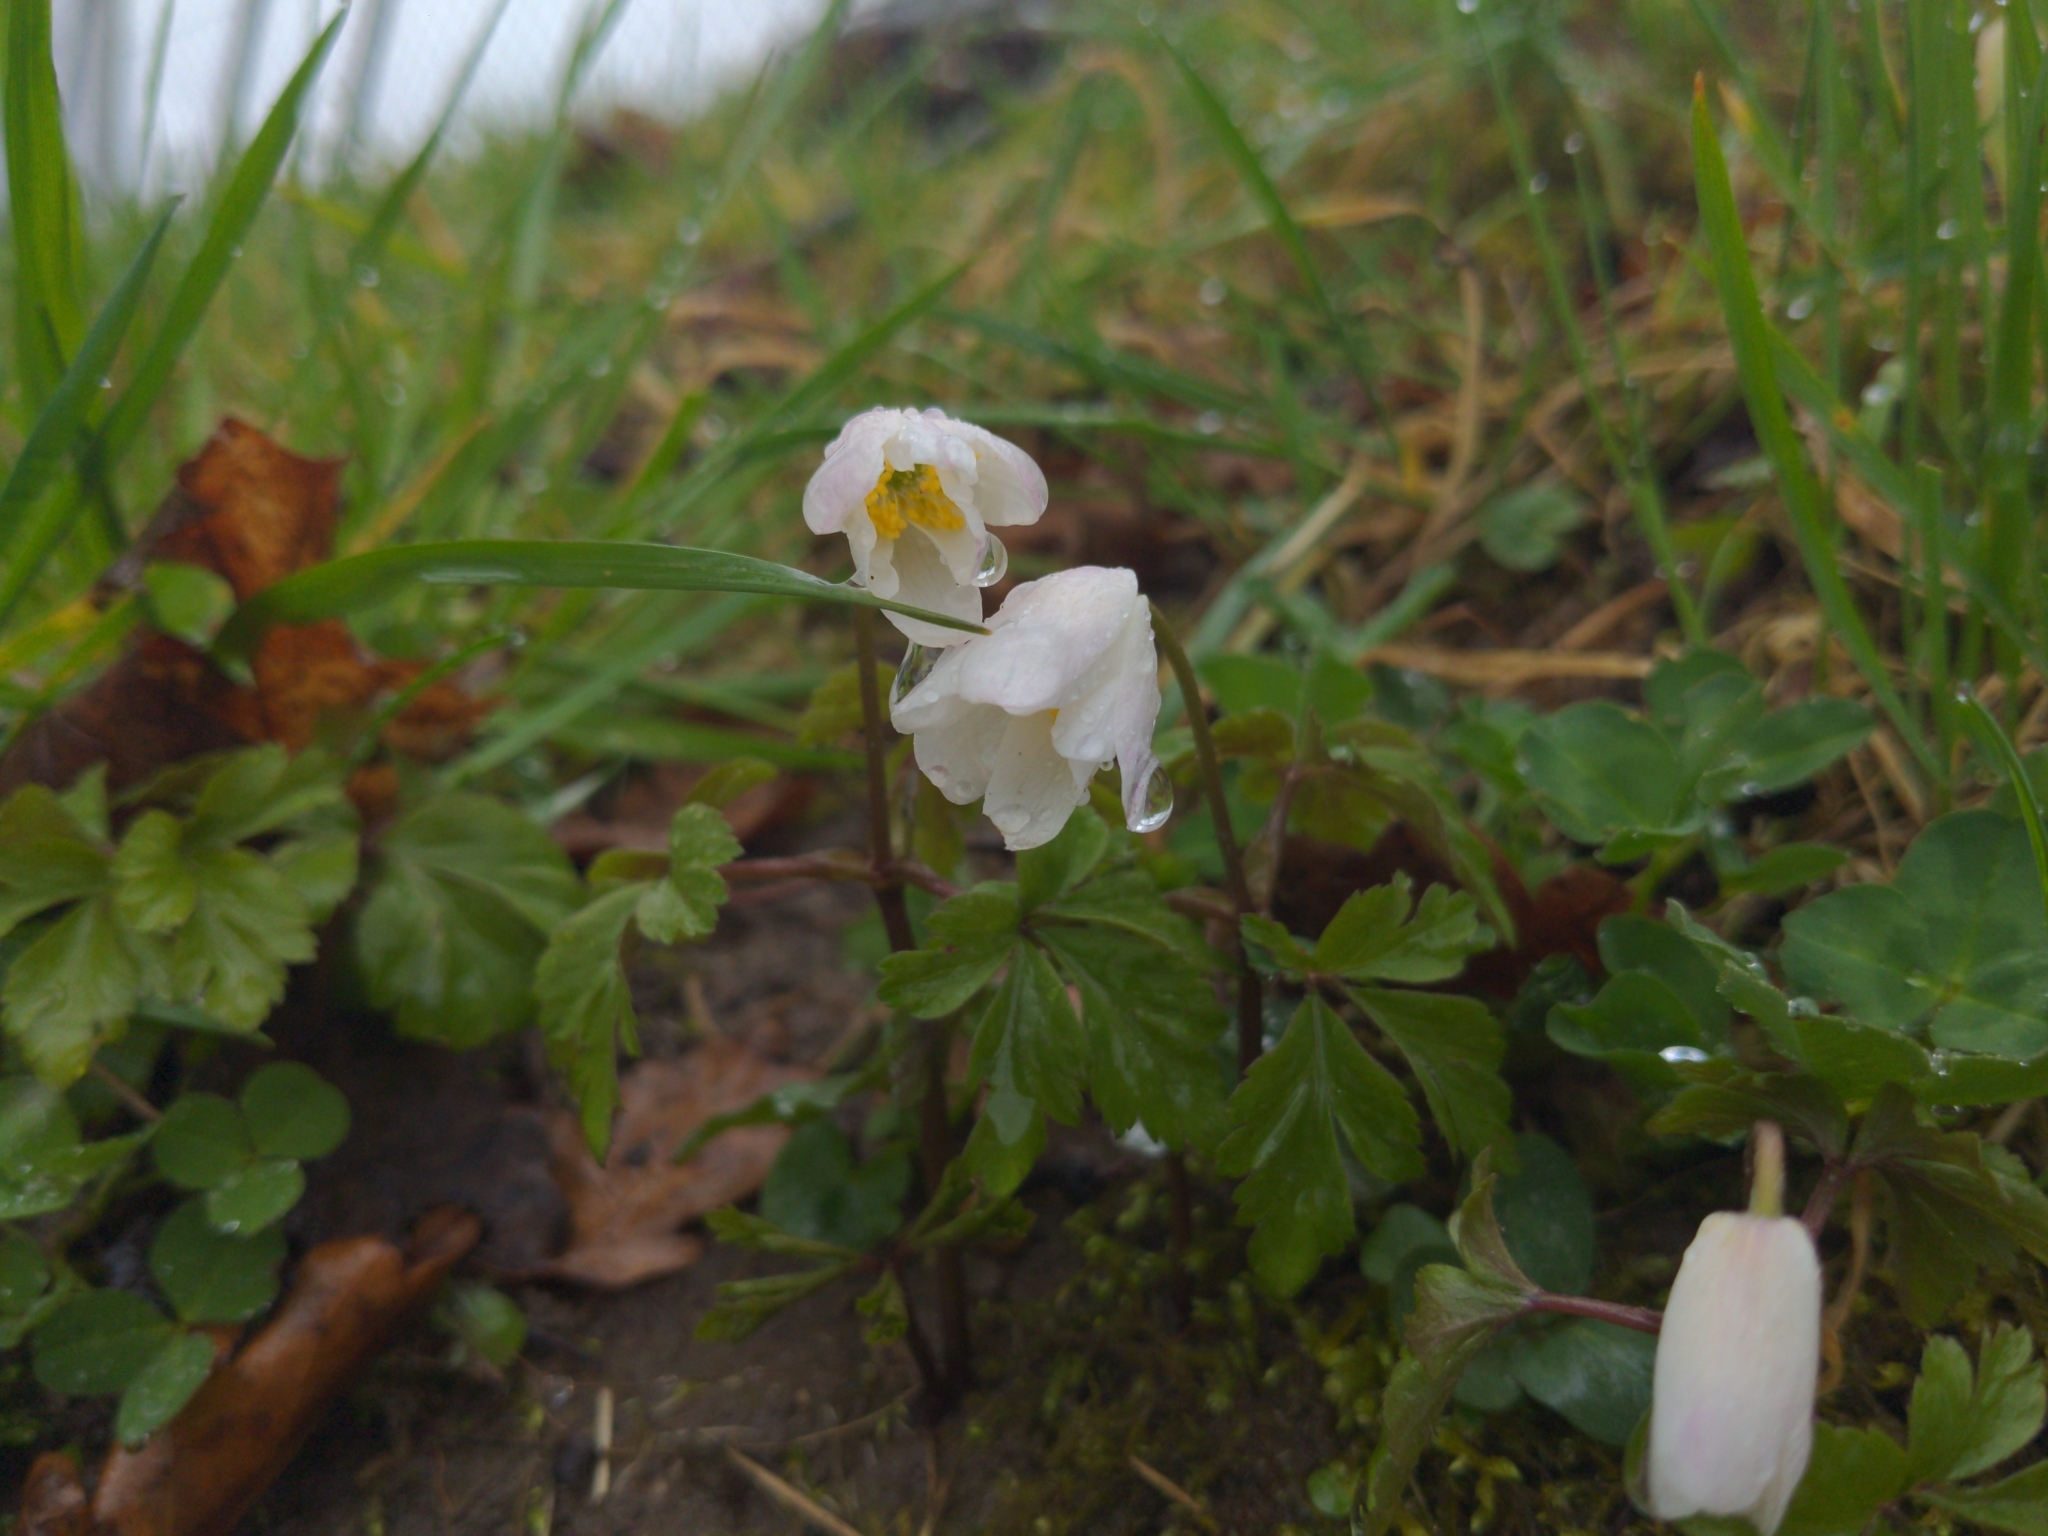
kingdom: Plantae
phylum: Tracheophyta
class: Magnoliopsida
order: Ranunculales
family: Ranunculaceae
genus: Anemone
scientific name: Anemone nemorosa
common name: Wood anemone
